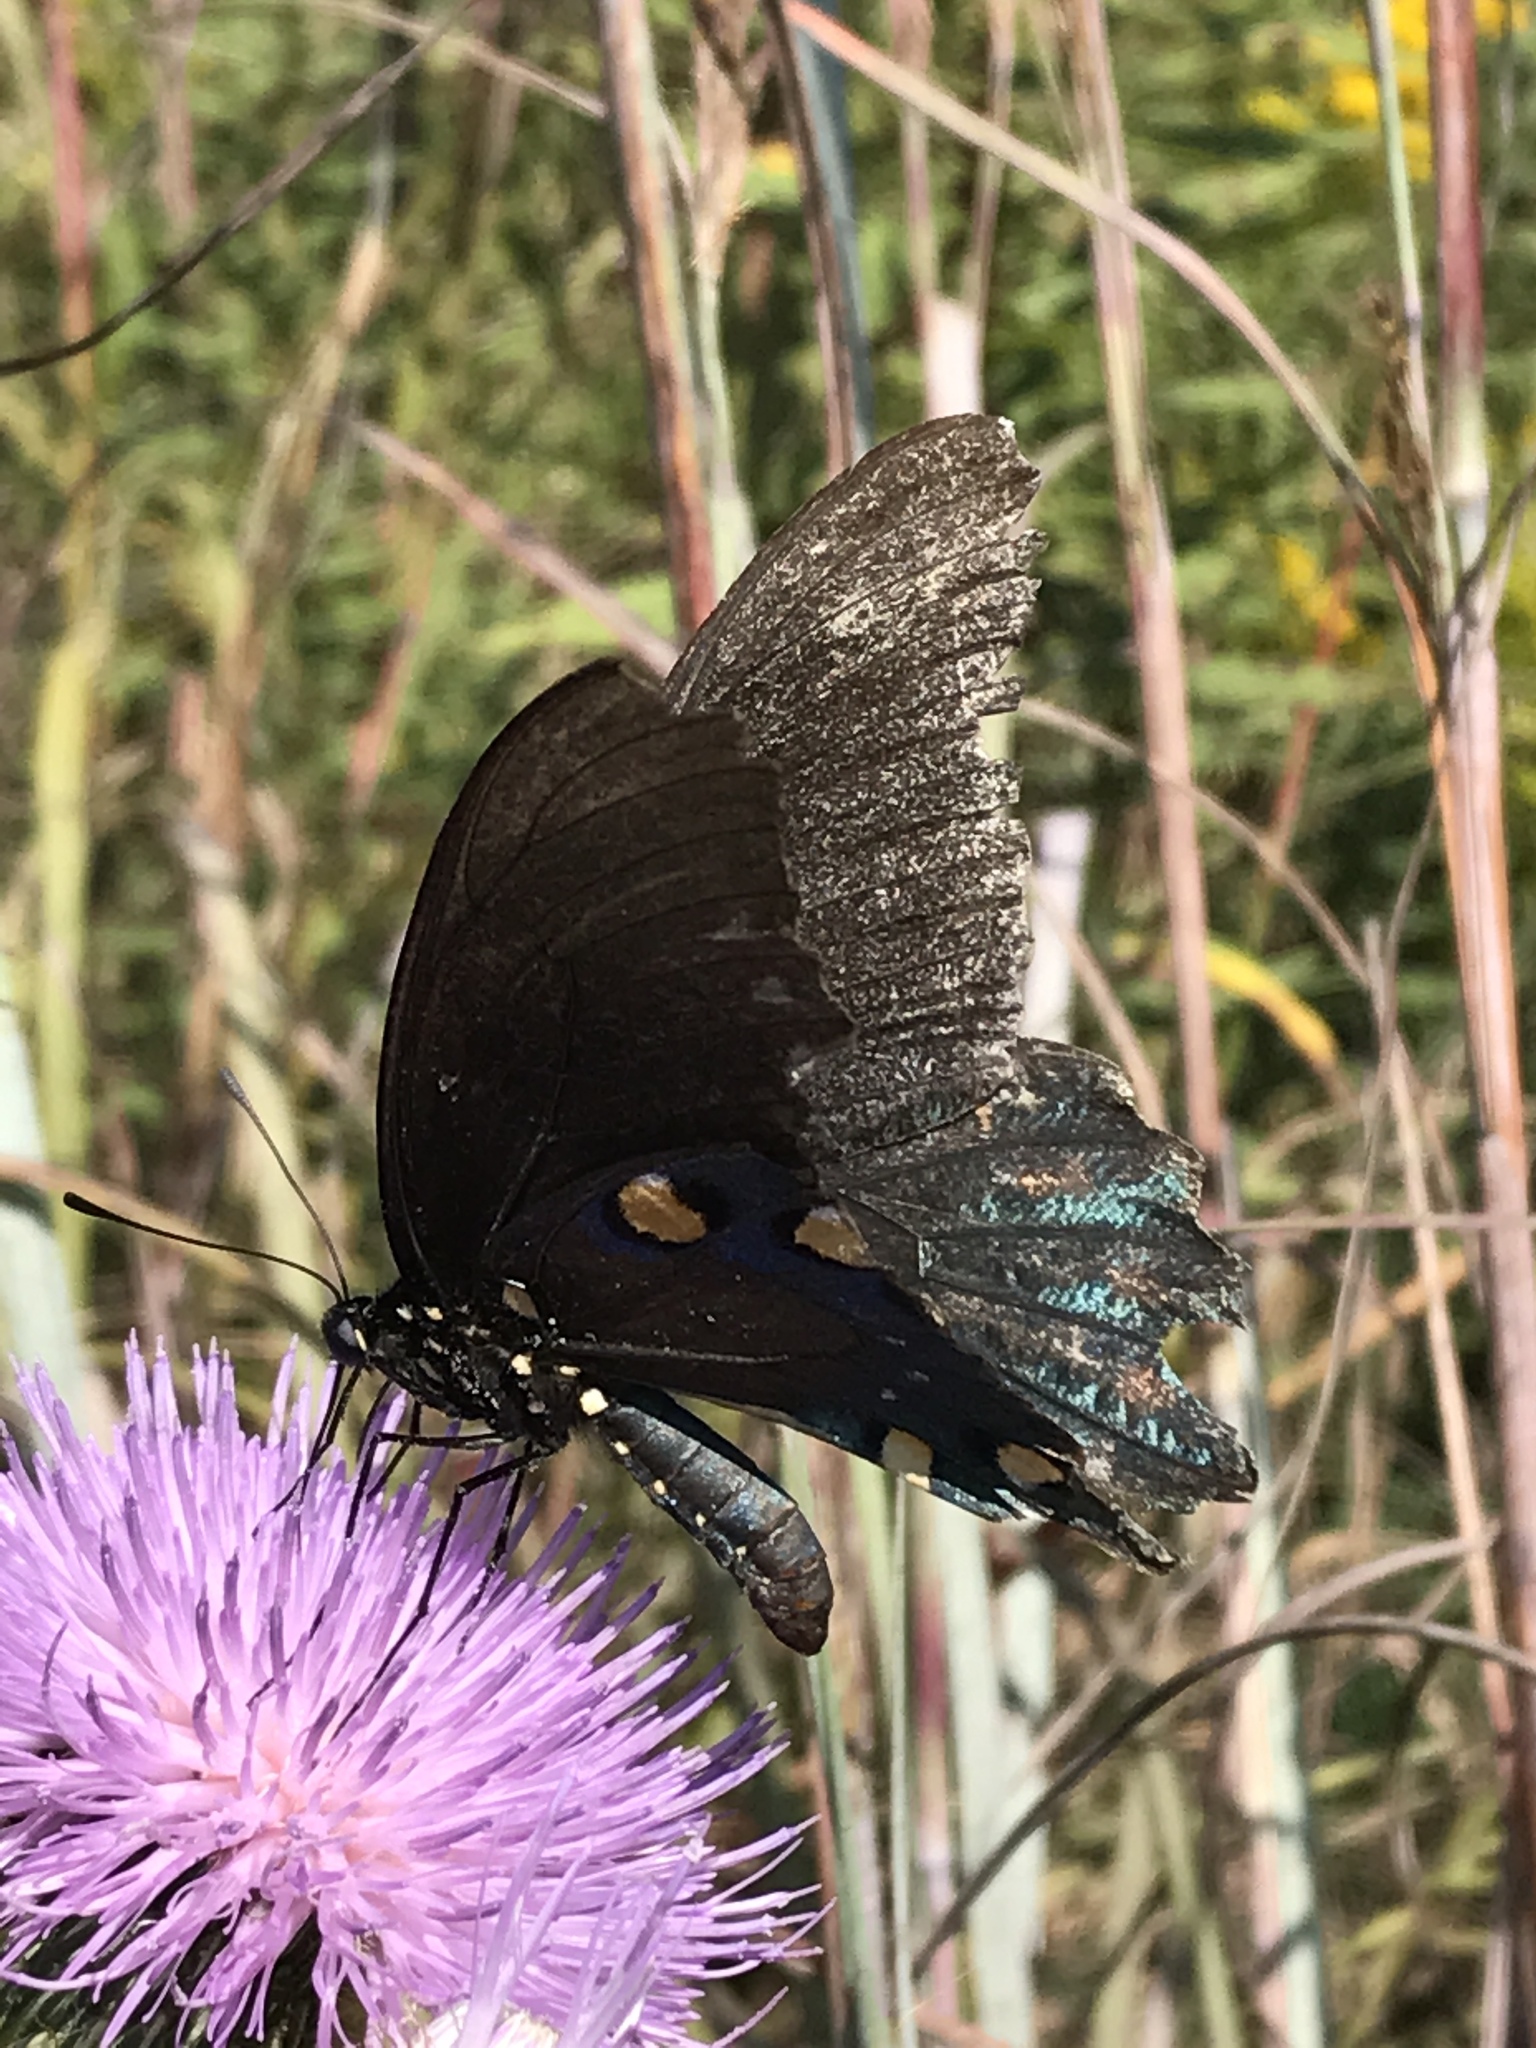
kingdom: Animalia
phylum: Arthropoda
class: Insecta
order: Lepidoptera
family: Papilionidae
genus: Battus
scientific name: Battus philenor
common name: Pipevine swallowtail
